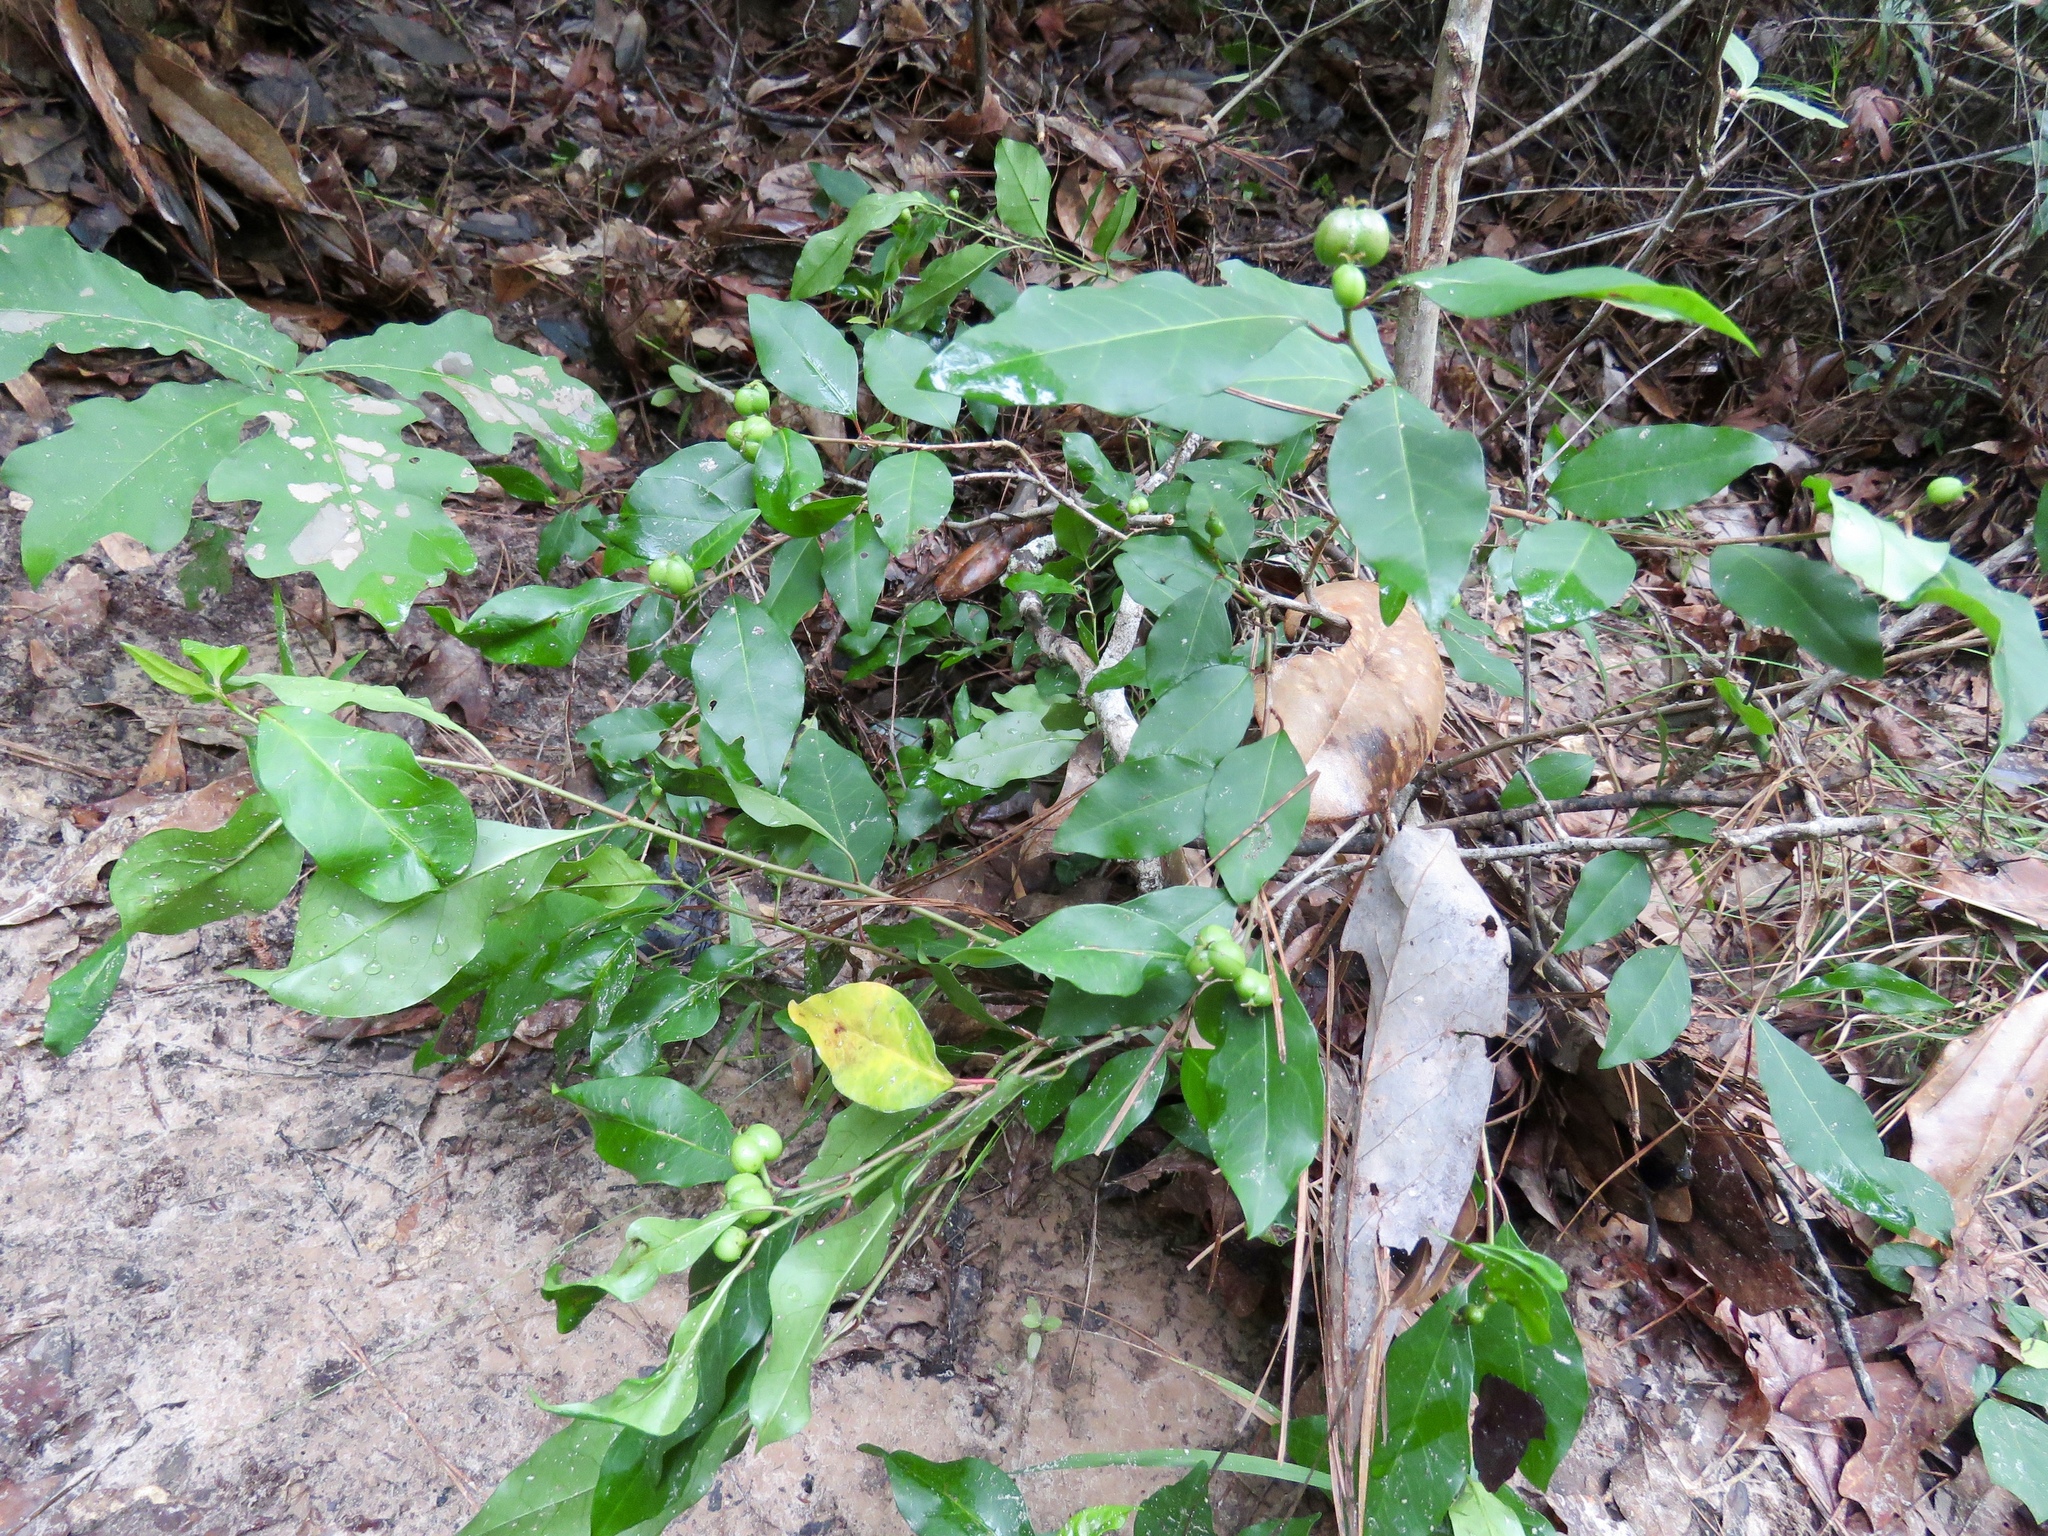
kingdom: Plantae
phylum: Tracheophyta
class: Magnoliopsida
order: Malpighiales
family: Euphorbiaceae
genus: Ditrysinia
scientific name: Ditrysinia fruticosa
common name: Gulf sebastian-bush
